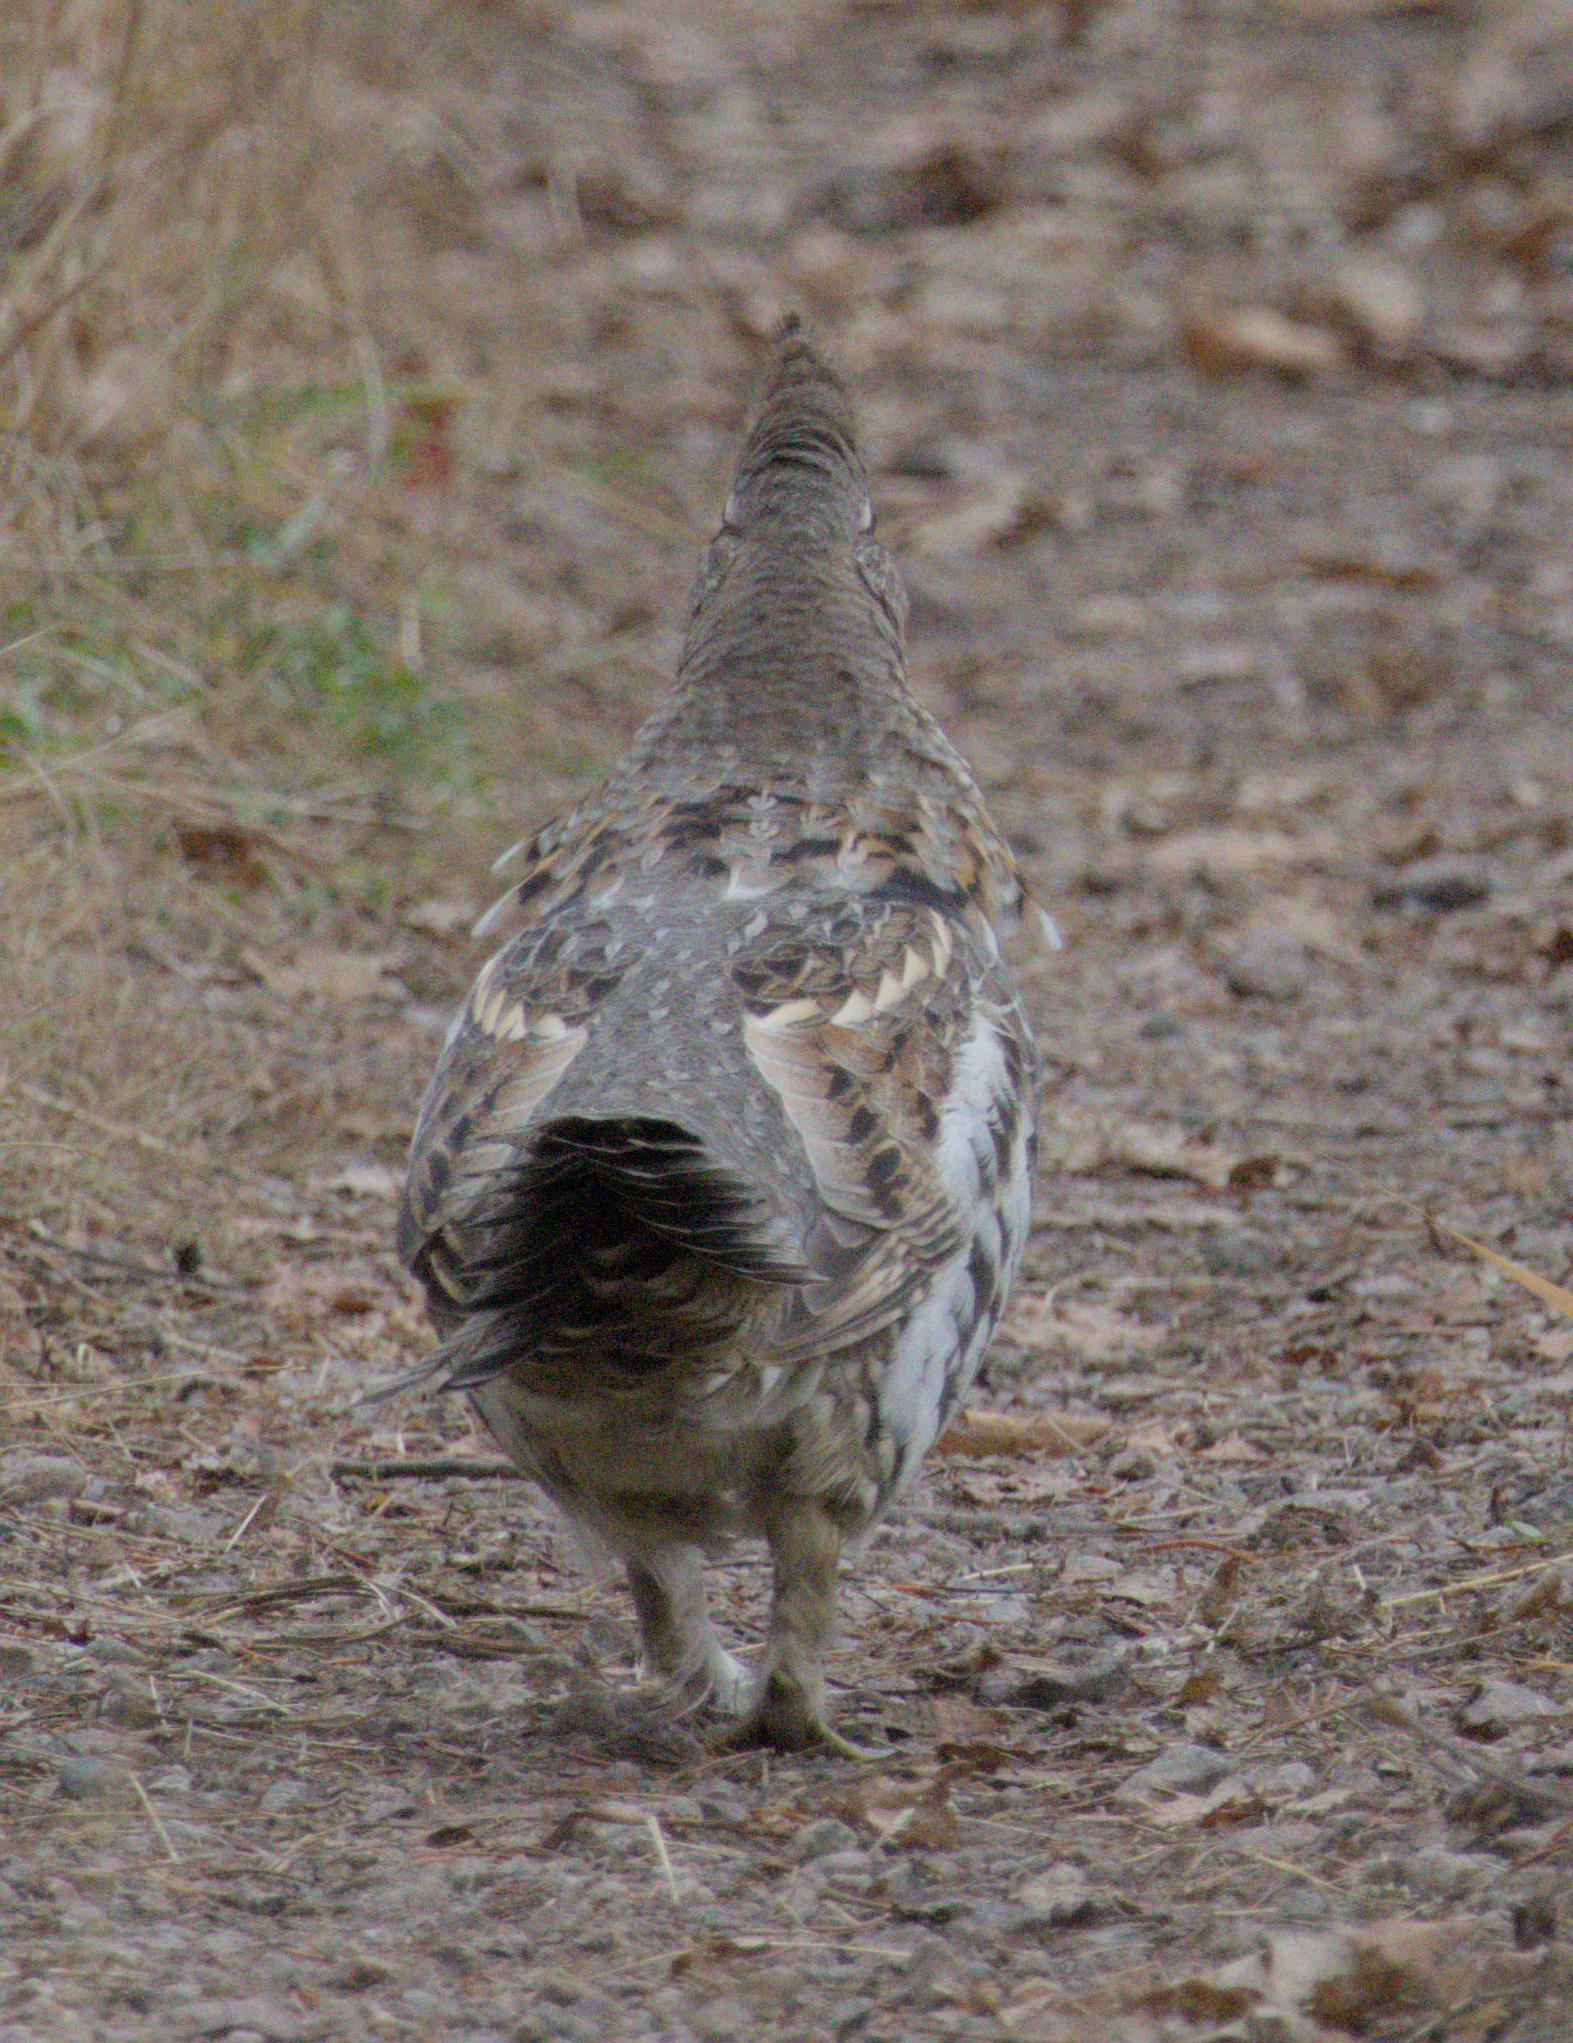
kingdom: Animalia
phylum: Chordata
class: Aves
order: Galliformes
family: Phasianidae
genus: Bonasa
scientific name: Bonasa umbellus
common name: Ruffed grouse
